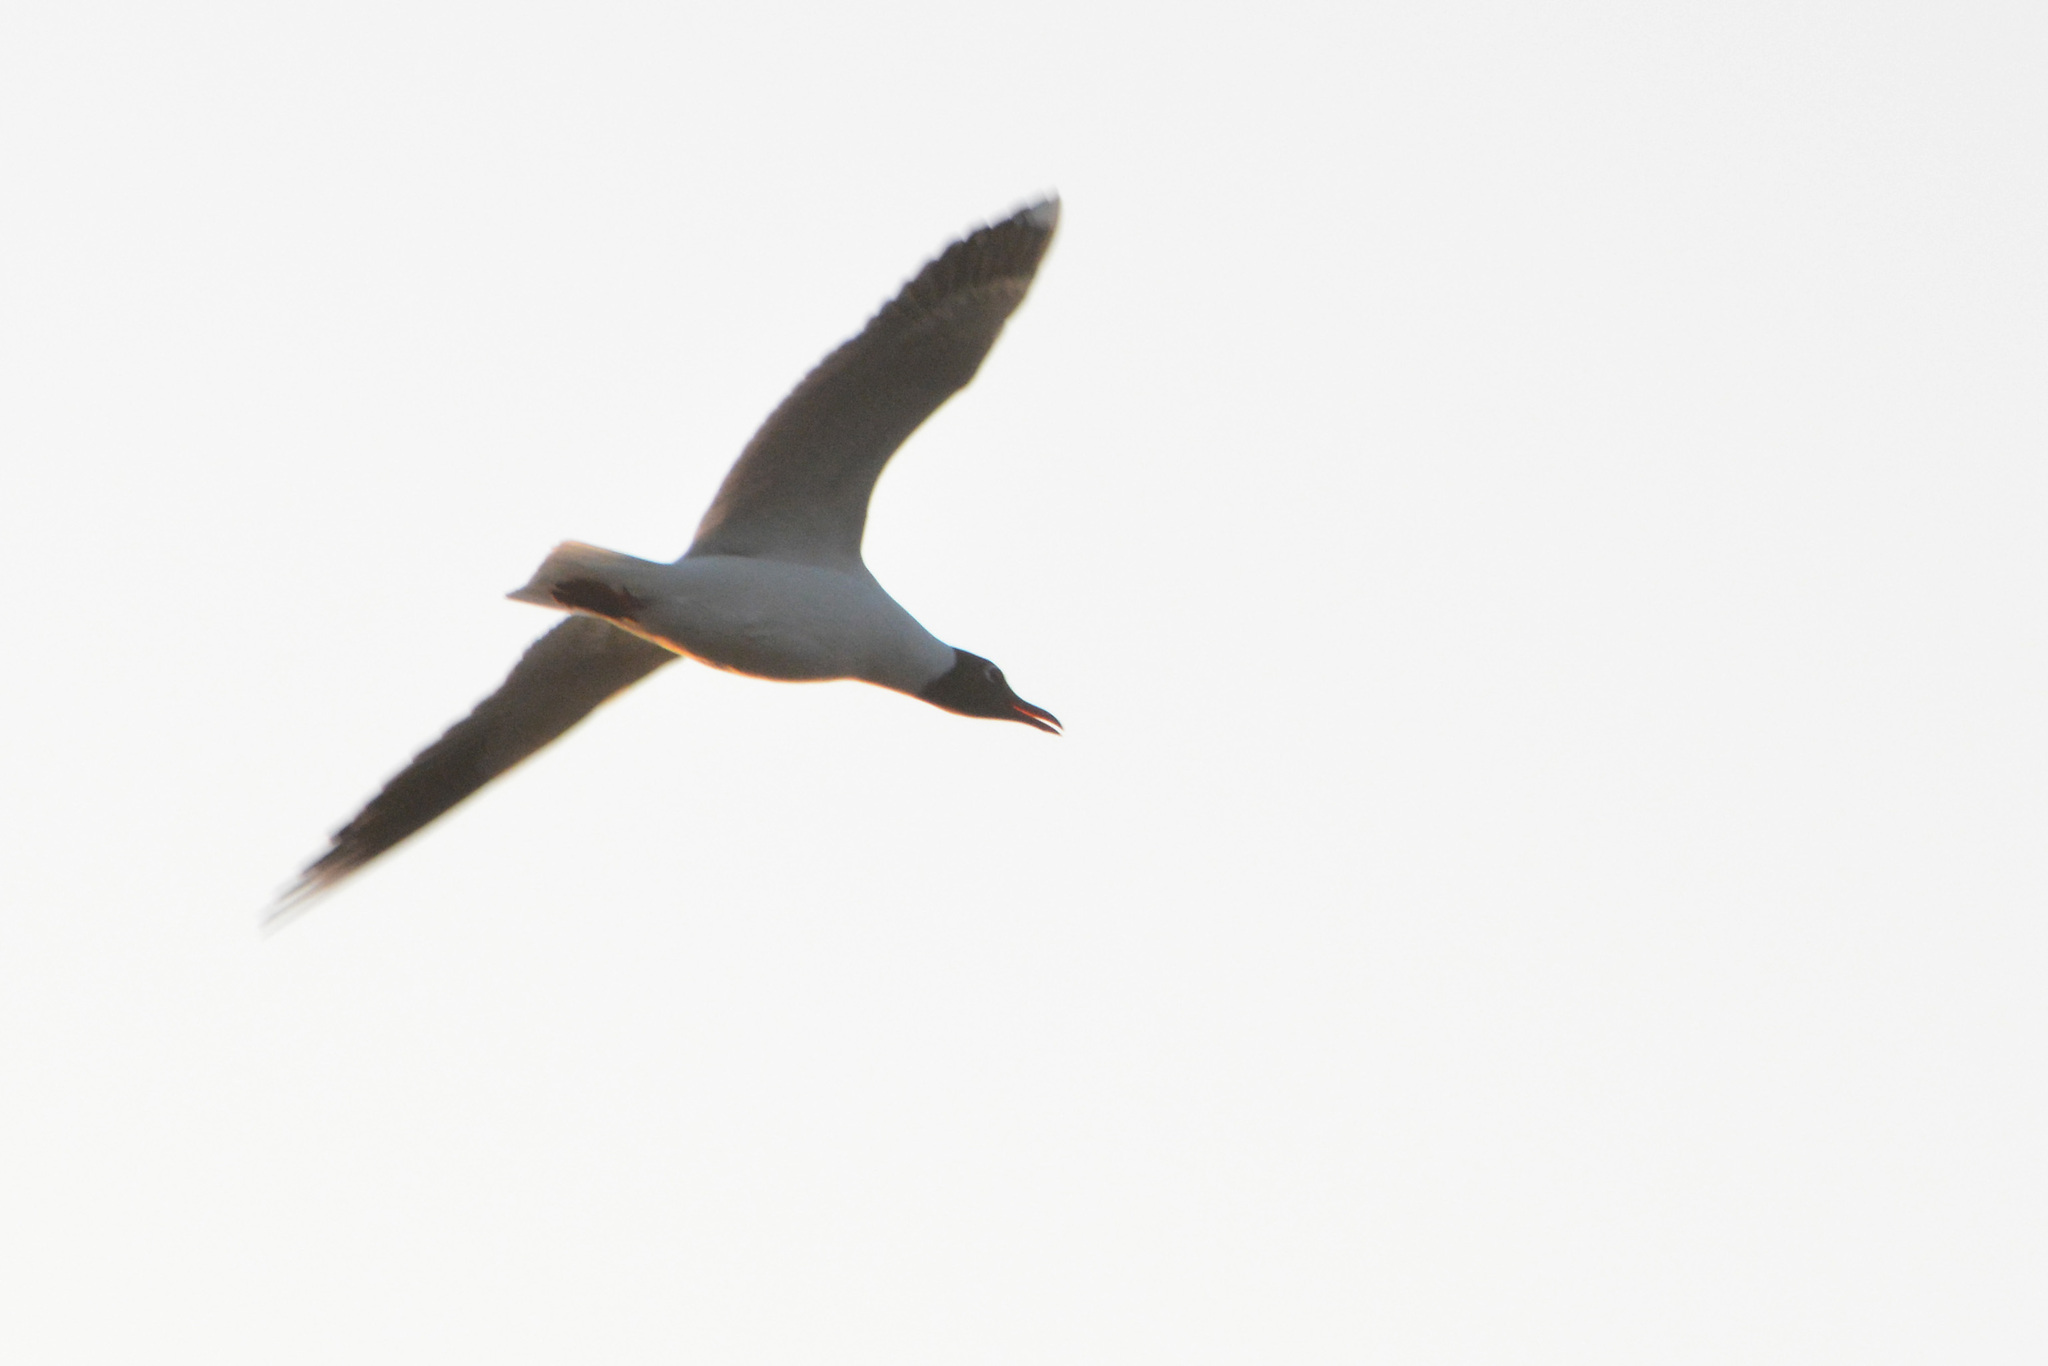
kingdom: Animalia
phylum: Chordata
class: Aves
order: Charadriiformes
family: Laridae
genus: Chroicocephalus
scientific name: Chroicocephalus maculipennis
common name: Brown-hooded gull
